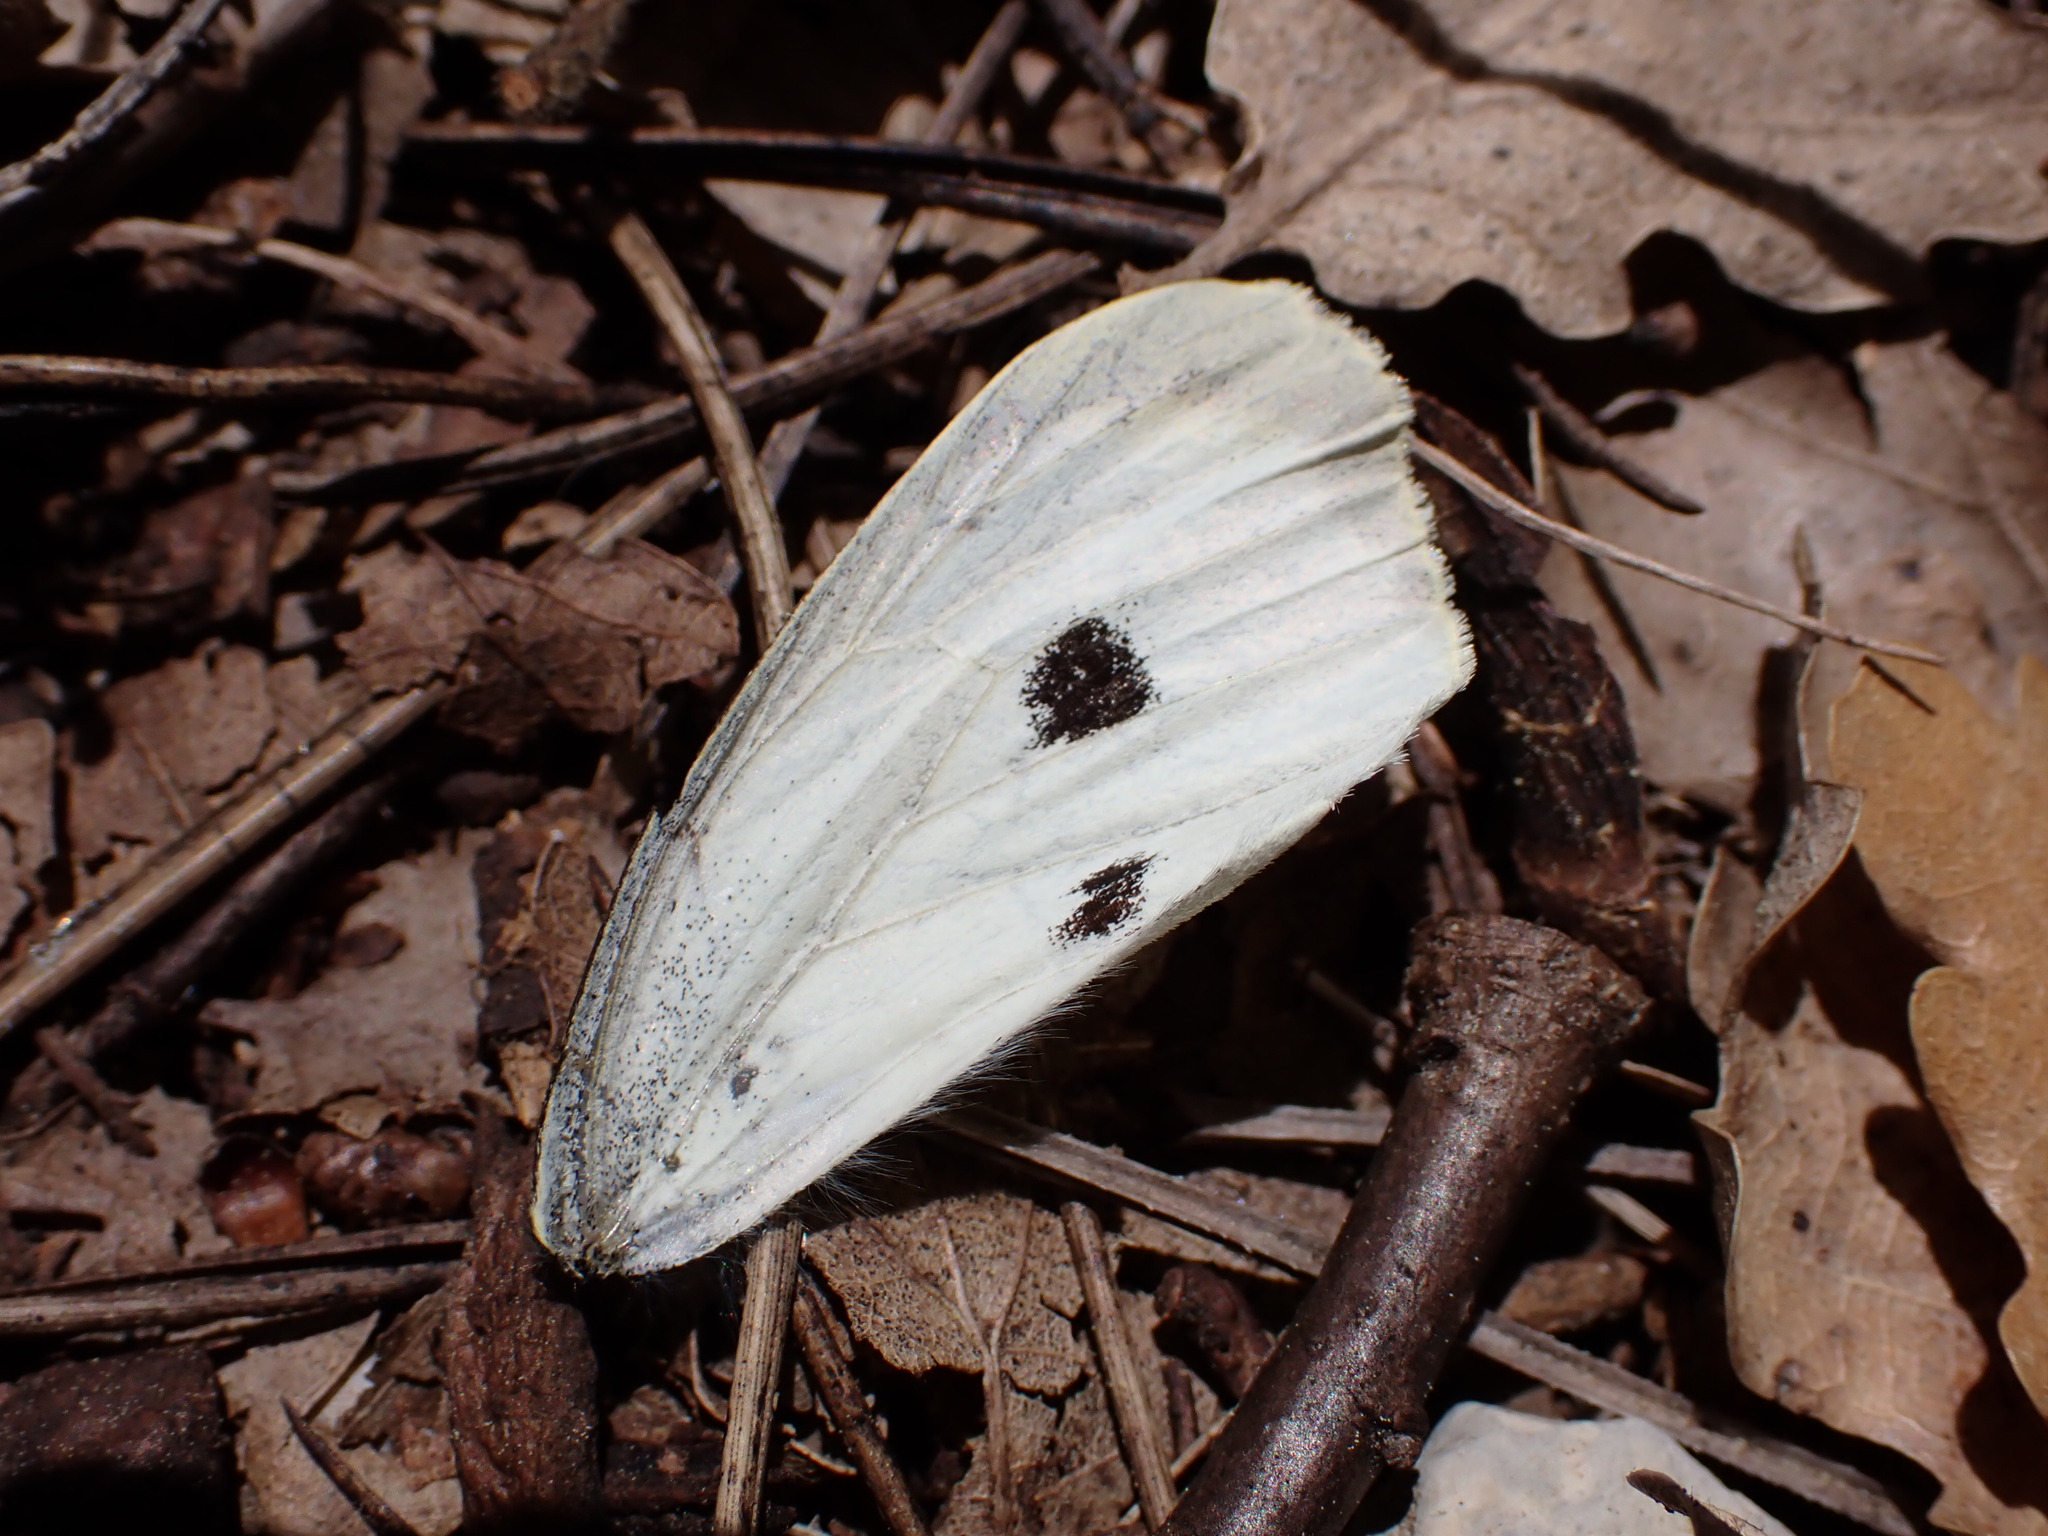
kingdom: Animalia
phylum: Arthropoda
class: Insecta
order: Lepidoptera
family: Pieridae
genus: Pieris
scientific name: Pieris brassicae
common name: Large white
